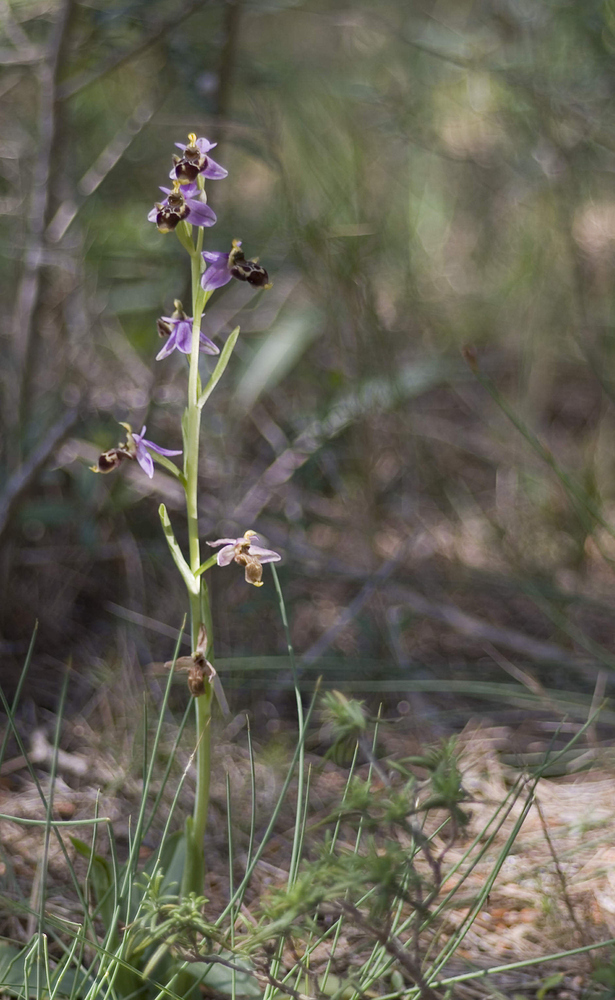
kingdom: Plantae
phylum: Tracheophyta
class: Liliopsida
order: Asparagales
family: Orchidaceae
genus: Ophrys
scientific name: Ophrys scolopax
